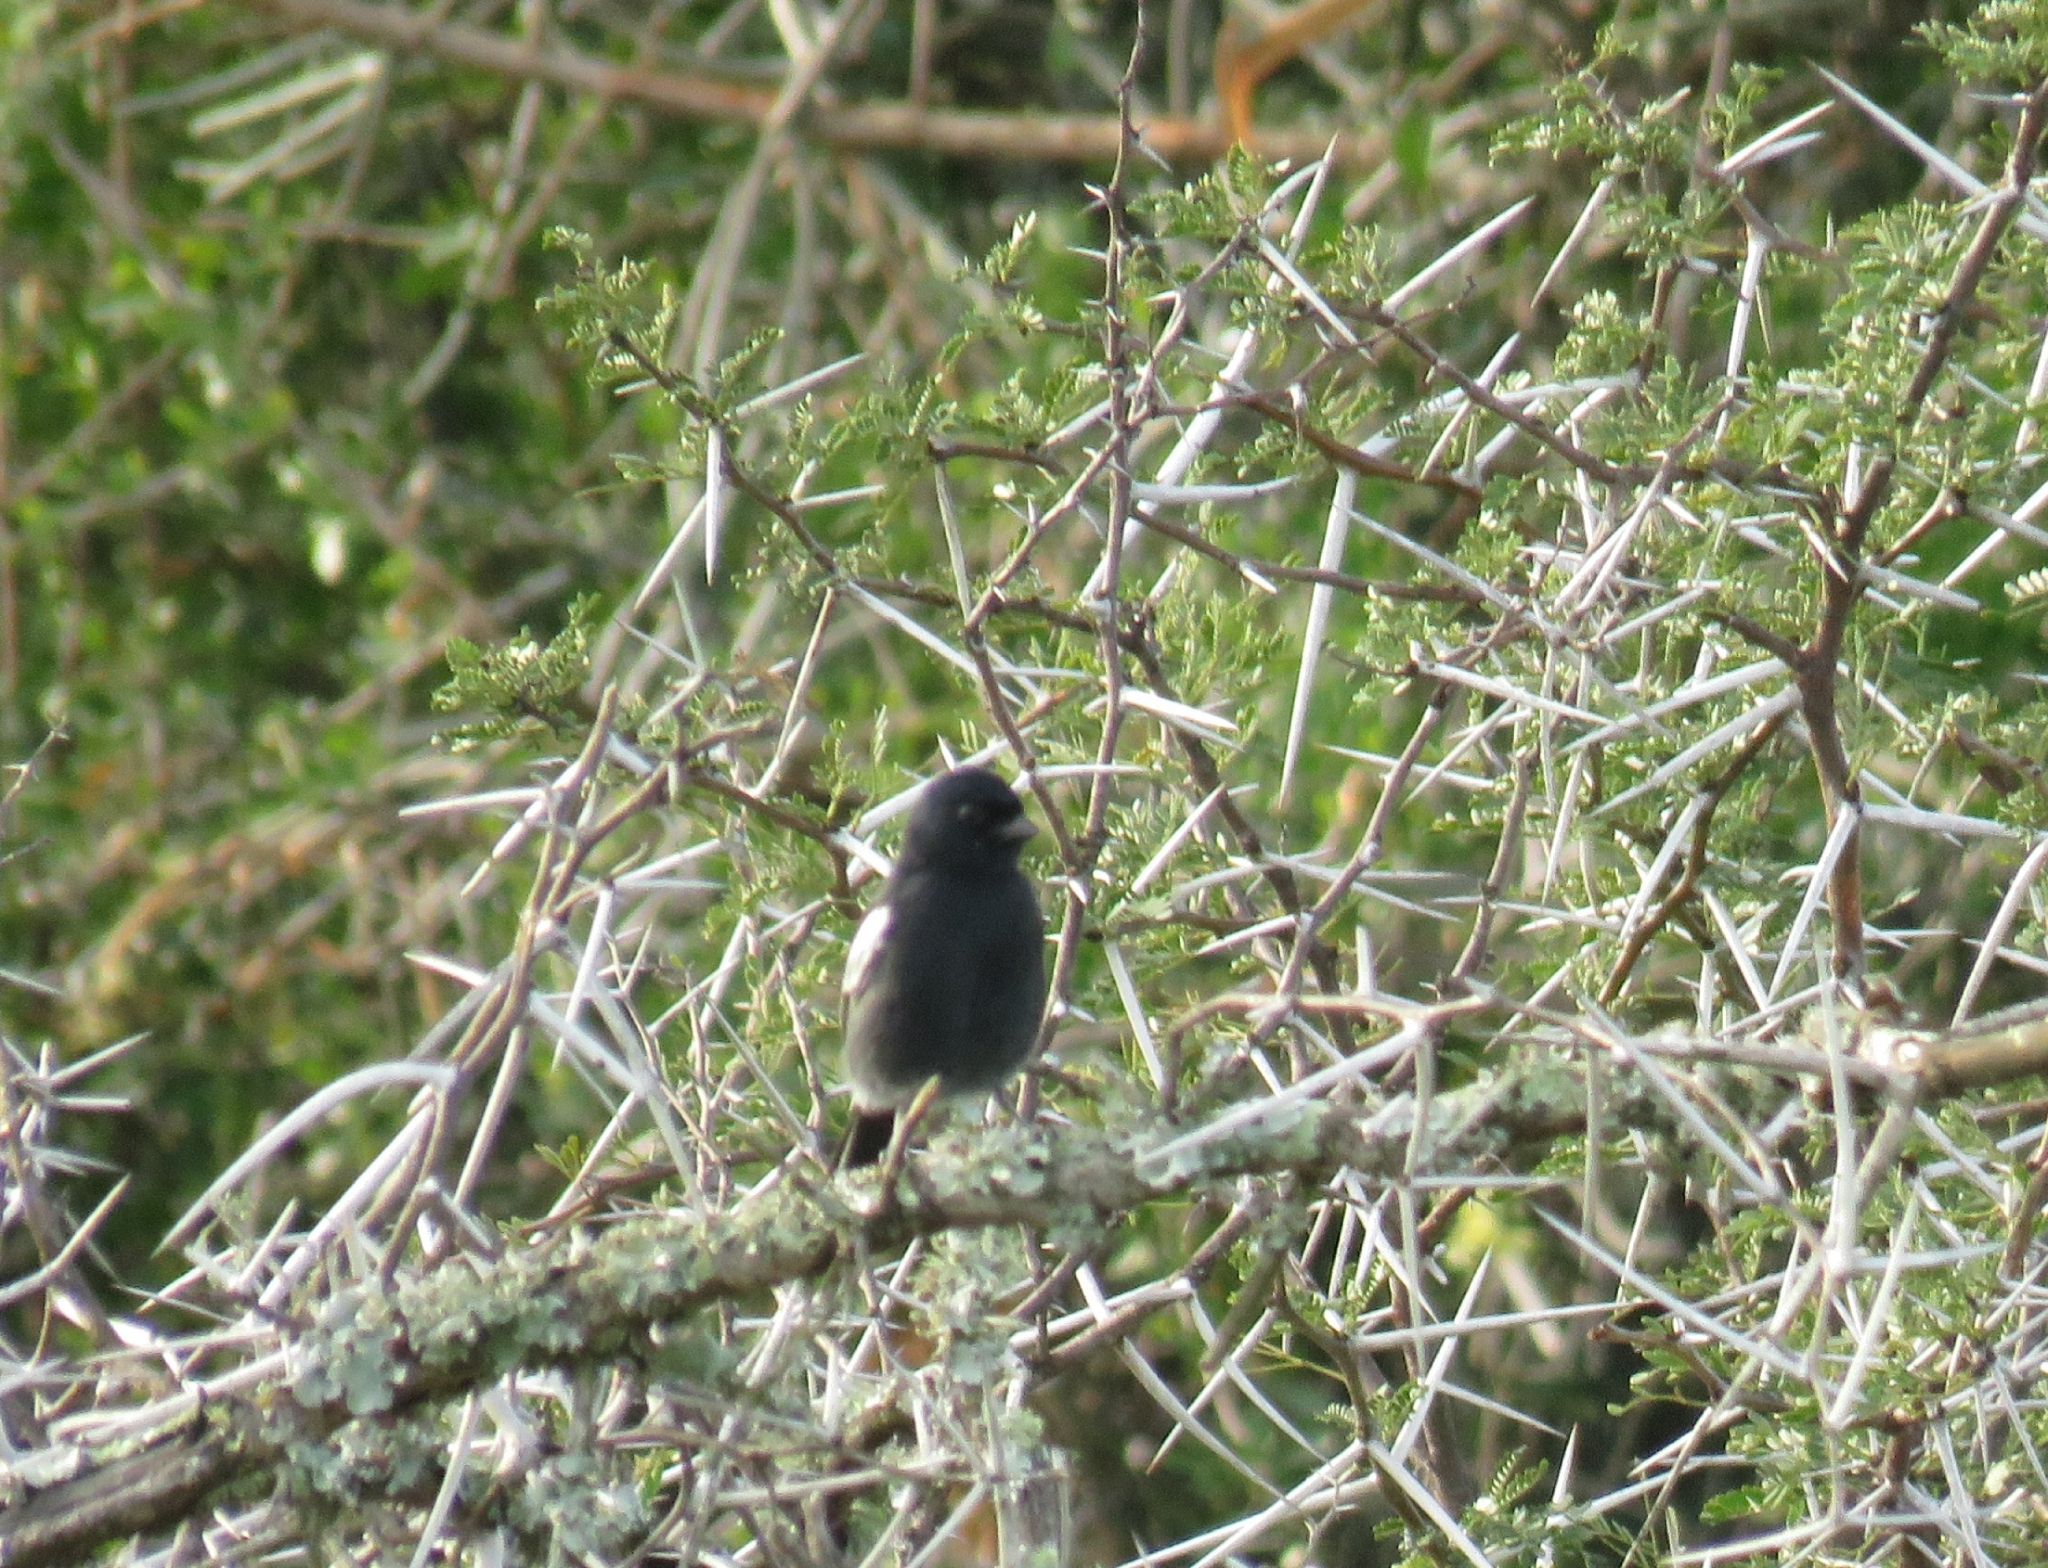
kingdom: Animalia
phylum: Chordata
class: Aves
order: Passeriformes
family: Paridae
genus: Parus
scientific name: Parus niger
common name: Southern black tit
